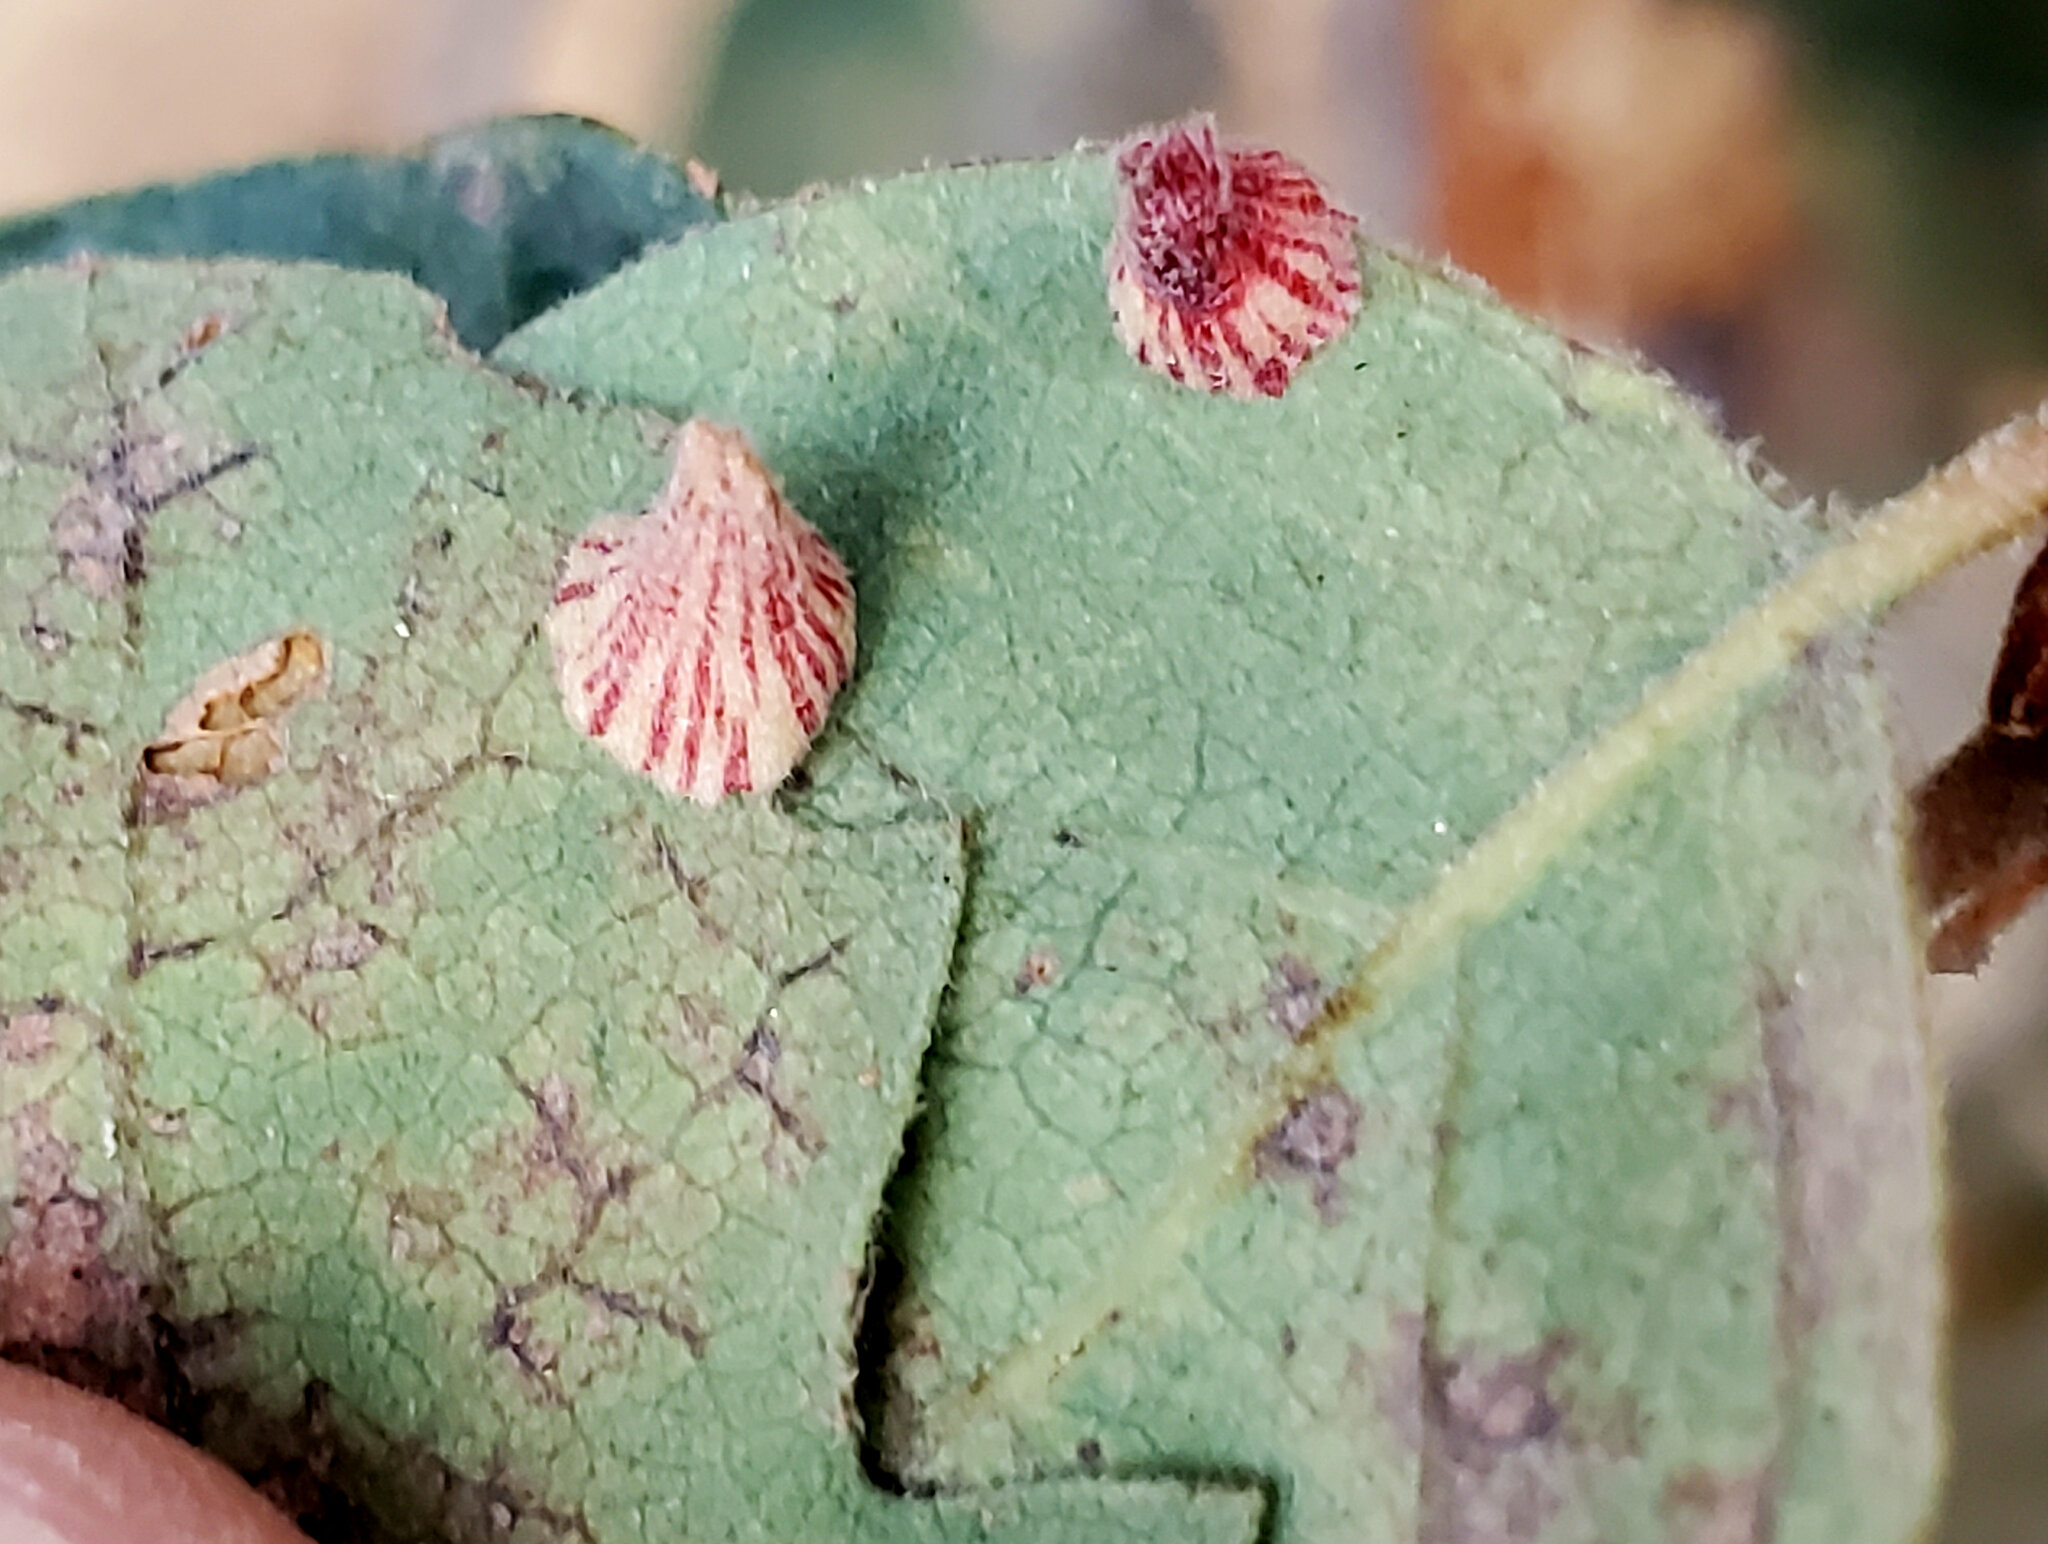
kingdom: Animalia
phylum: Arthropoda
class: Insecta
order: Hymenoptera
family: Cynipidae
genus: Andricus
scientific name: Andricus
